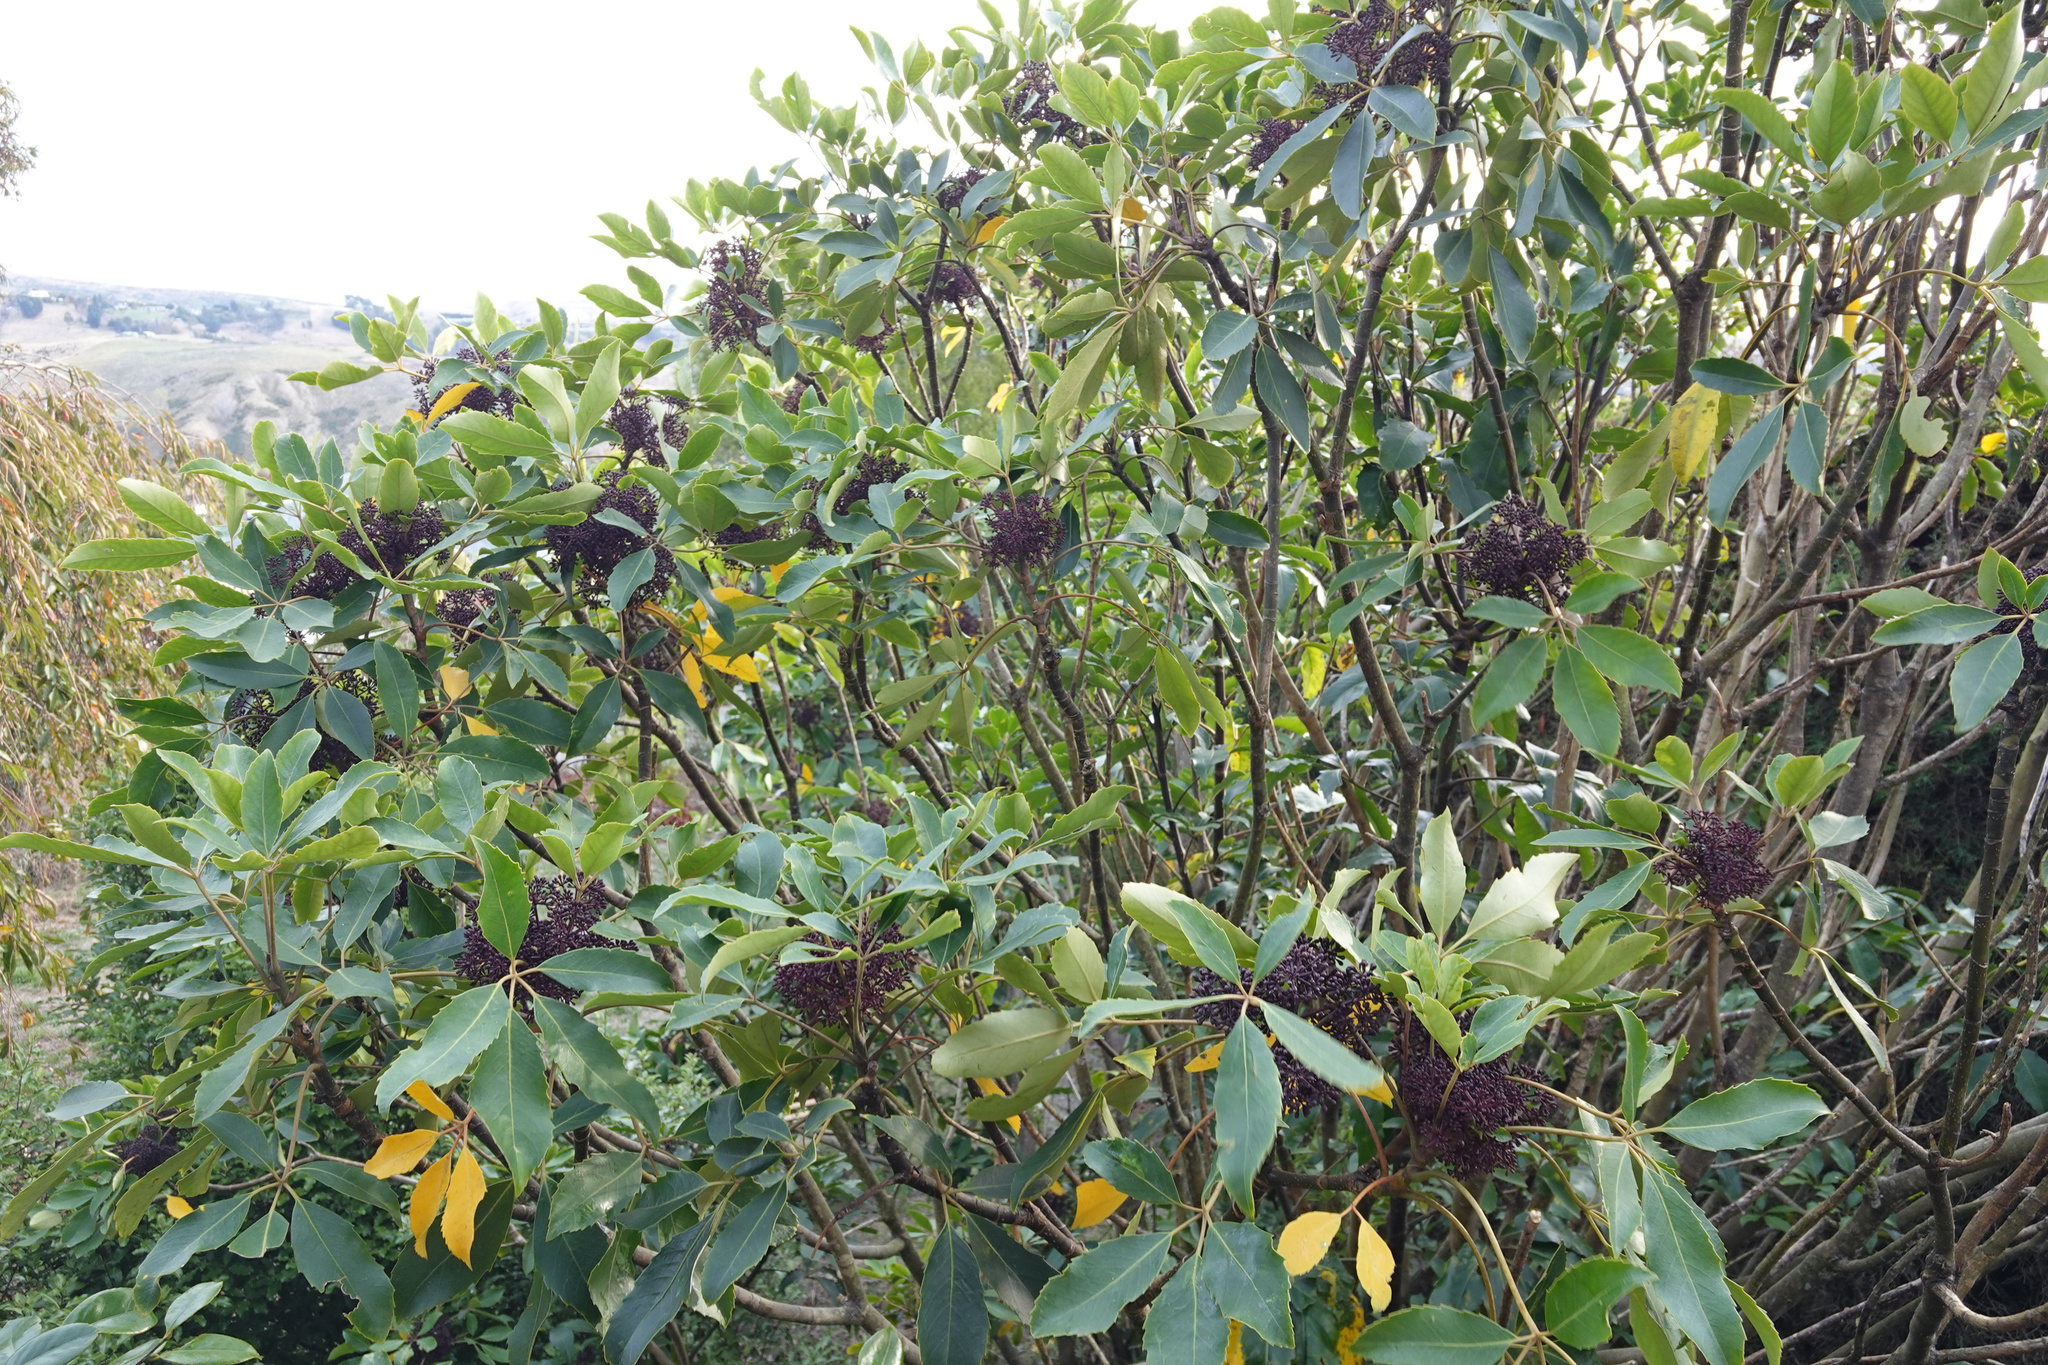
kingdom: Plantae
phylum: Tracheophyta
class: Magnoliopsida
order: Apiales
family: Araliaceae
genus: Neopanax
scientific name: Neopanax arboreus
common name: Five-fingers
